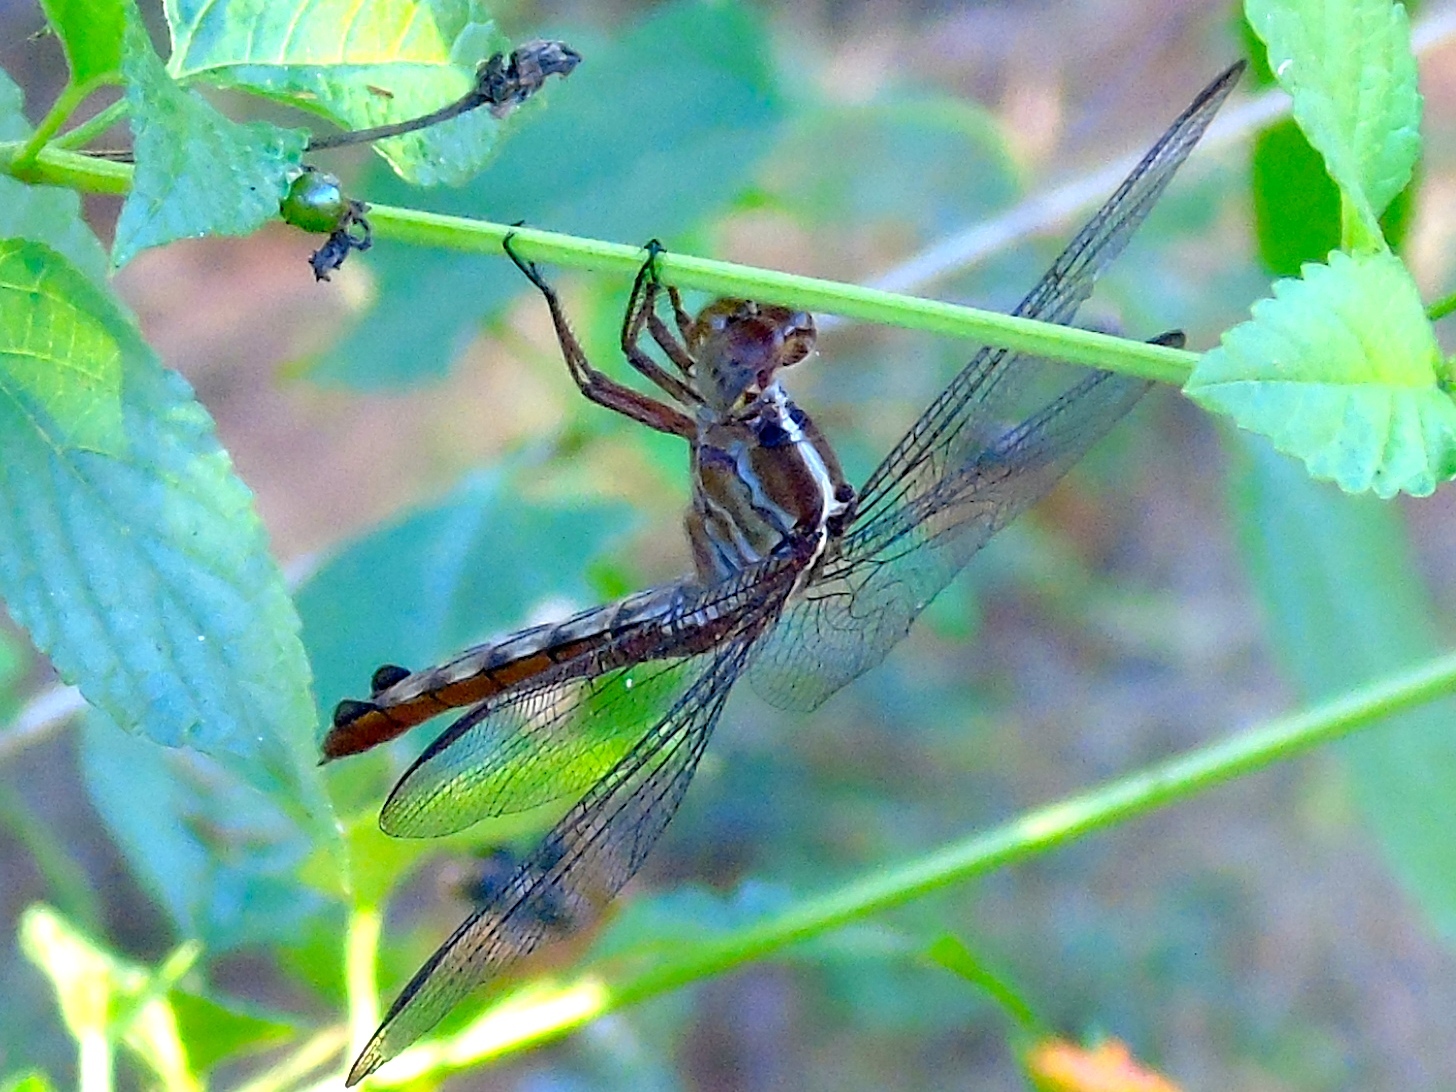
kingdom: Animalia
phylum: Arthropoda
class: Insecta
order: Odonata
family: Libellulidae
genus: Orthemis
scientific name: Orthemis discolor
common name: Carmine skimmer
